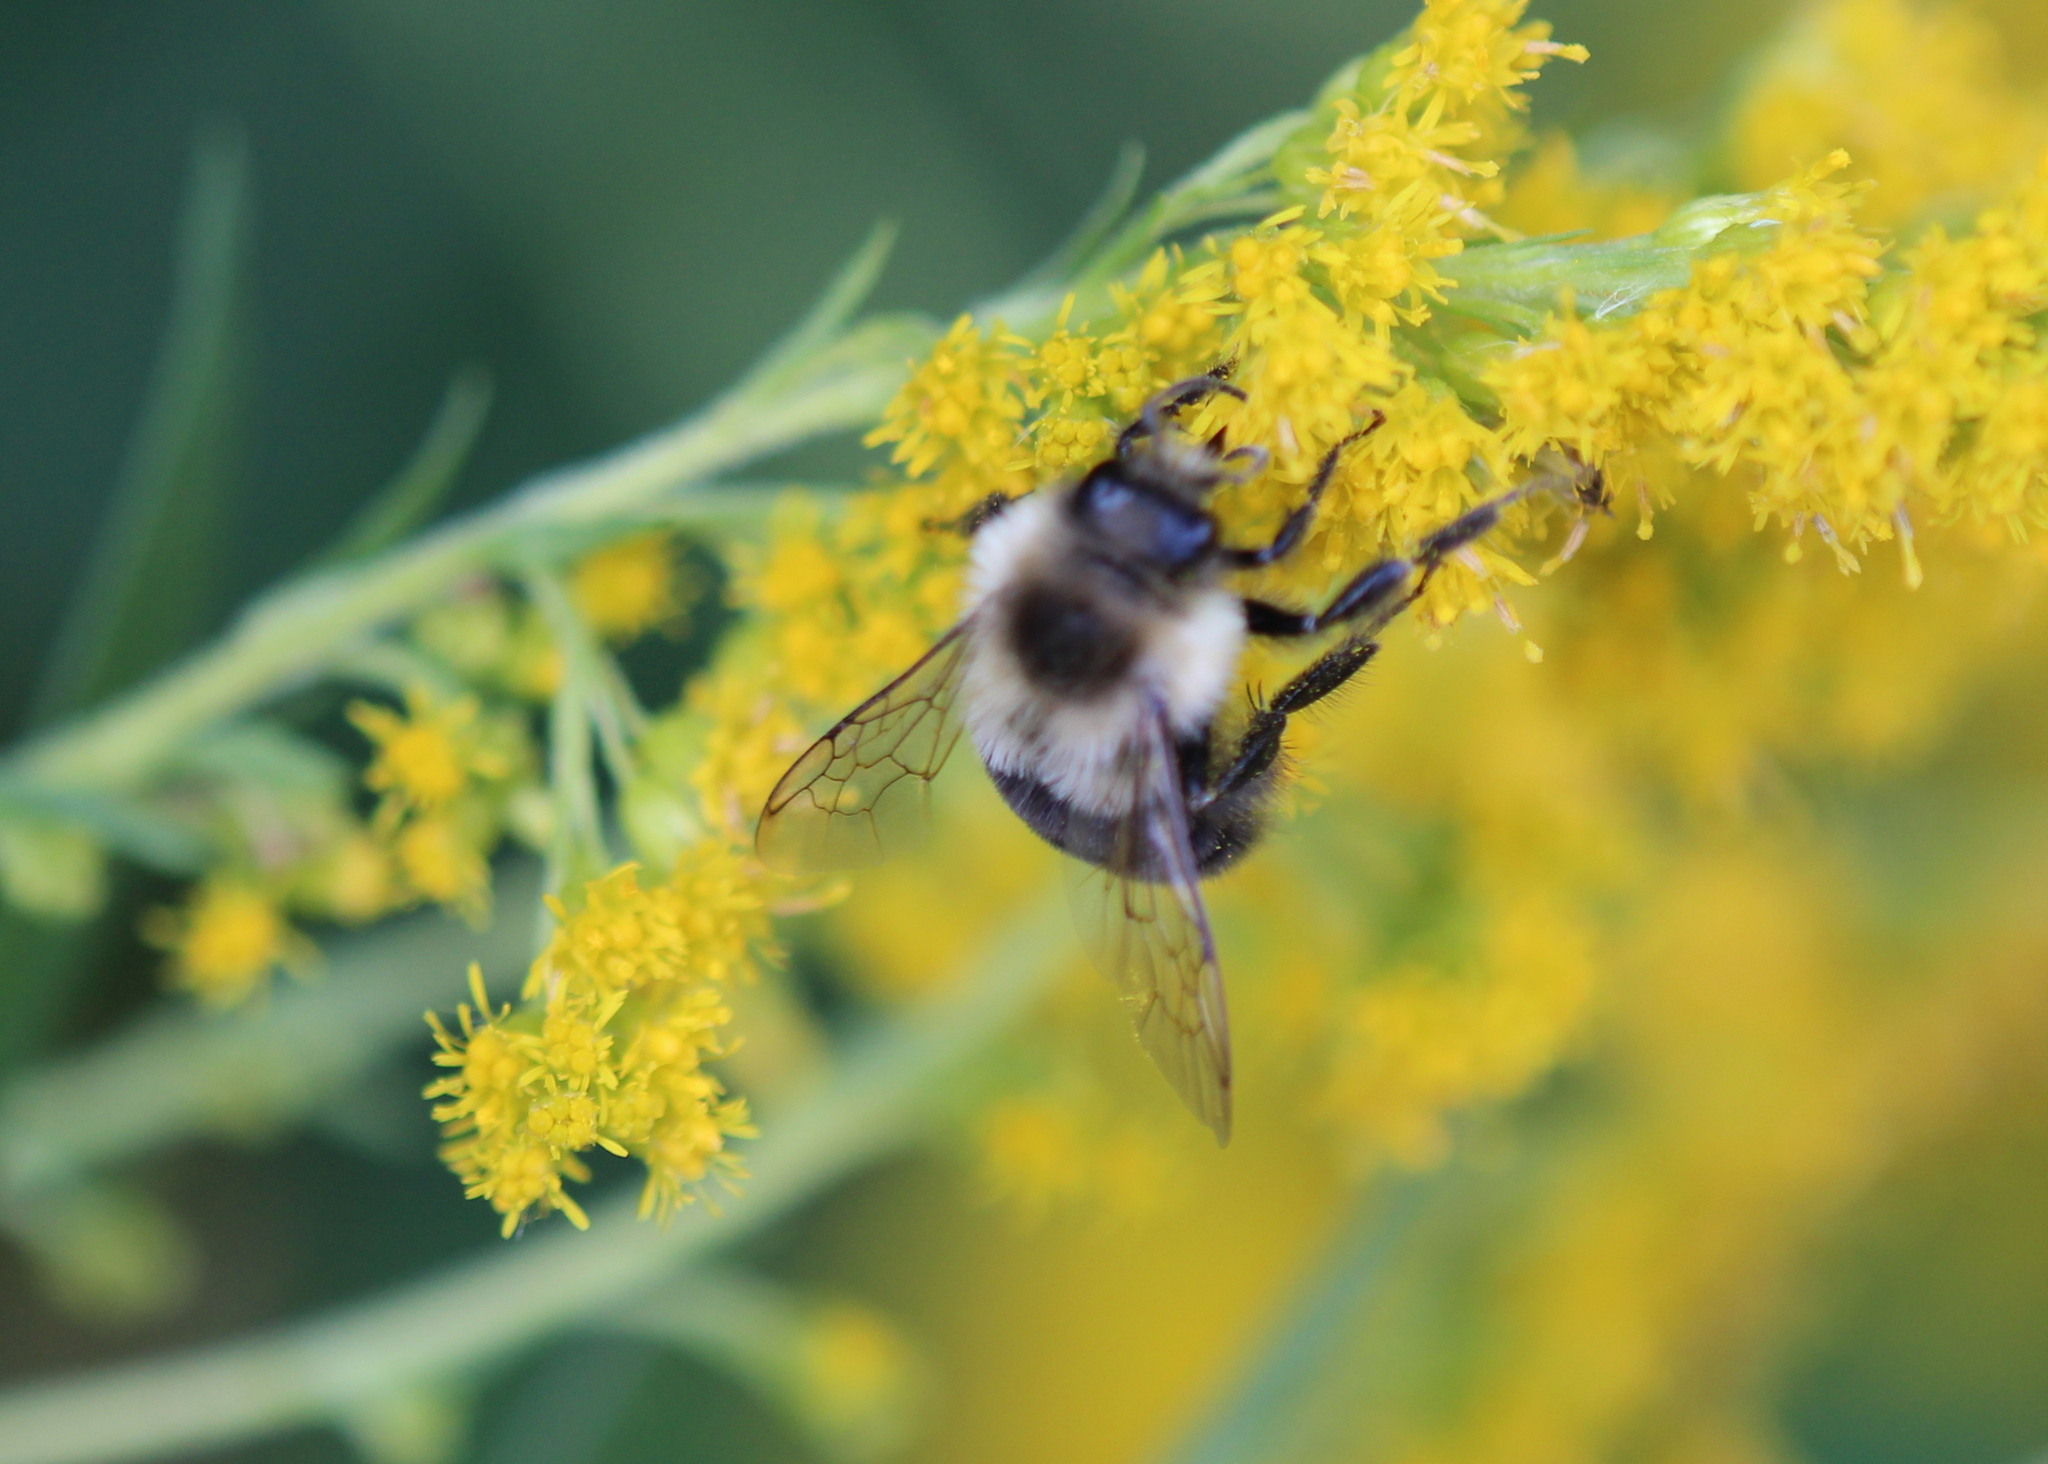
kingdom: Animalia
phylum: Arthropoda
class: Insecta
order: Hymenoptera
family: Apidae
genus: Bombus
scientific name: Bombus impatiens
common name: Common eastern bumble bee
